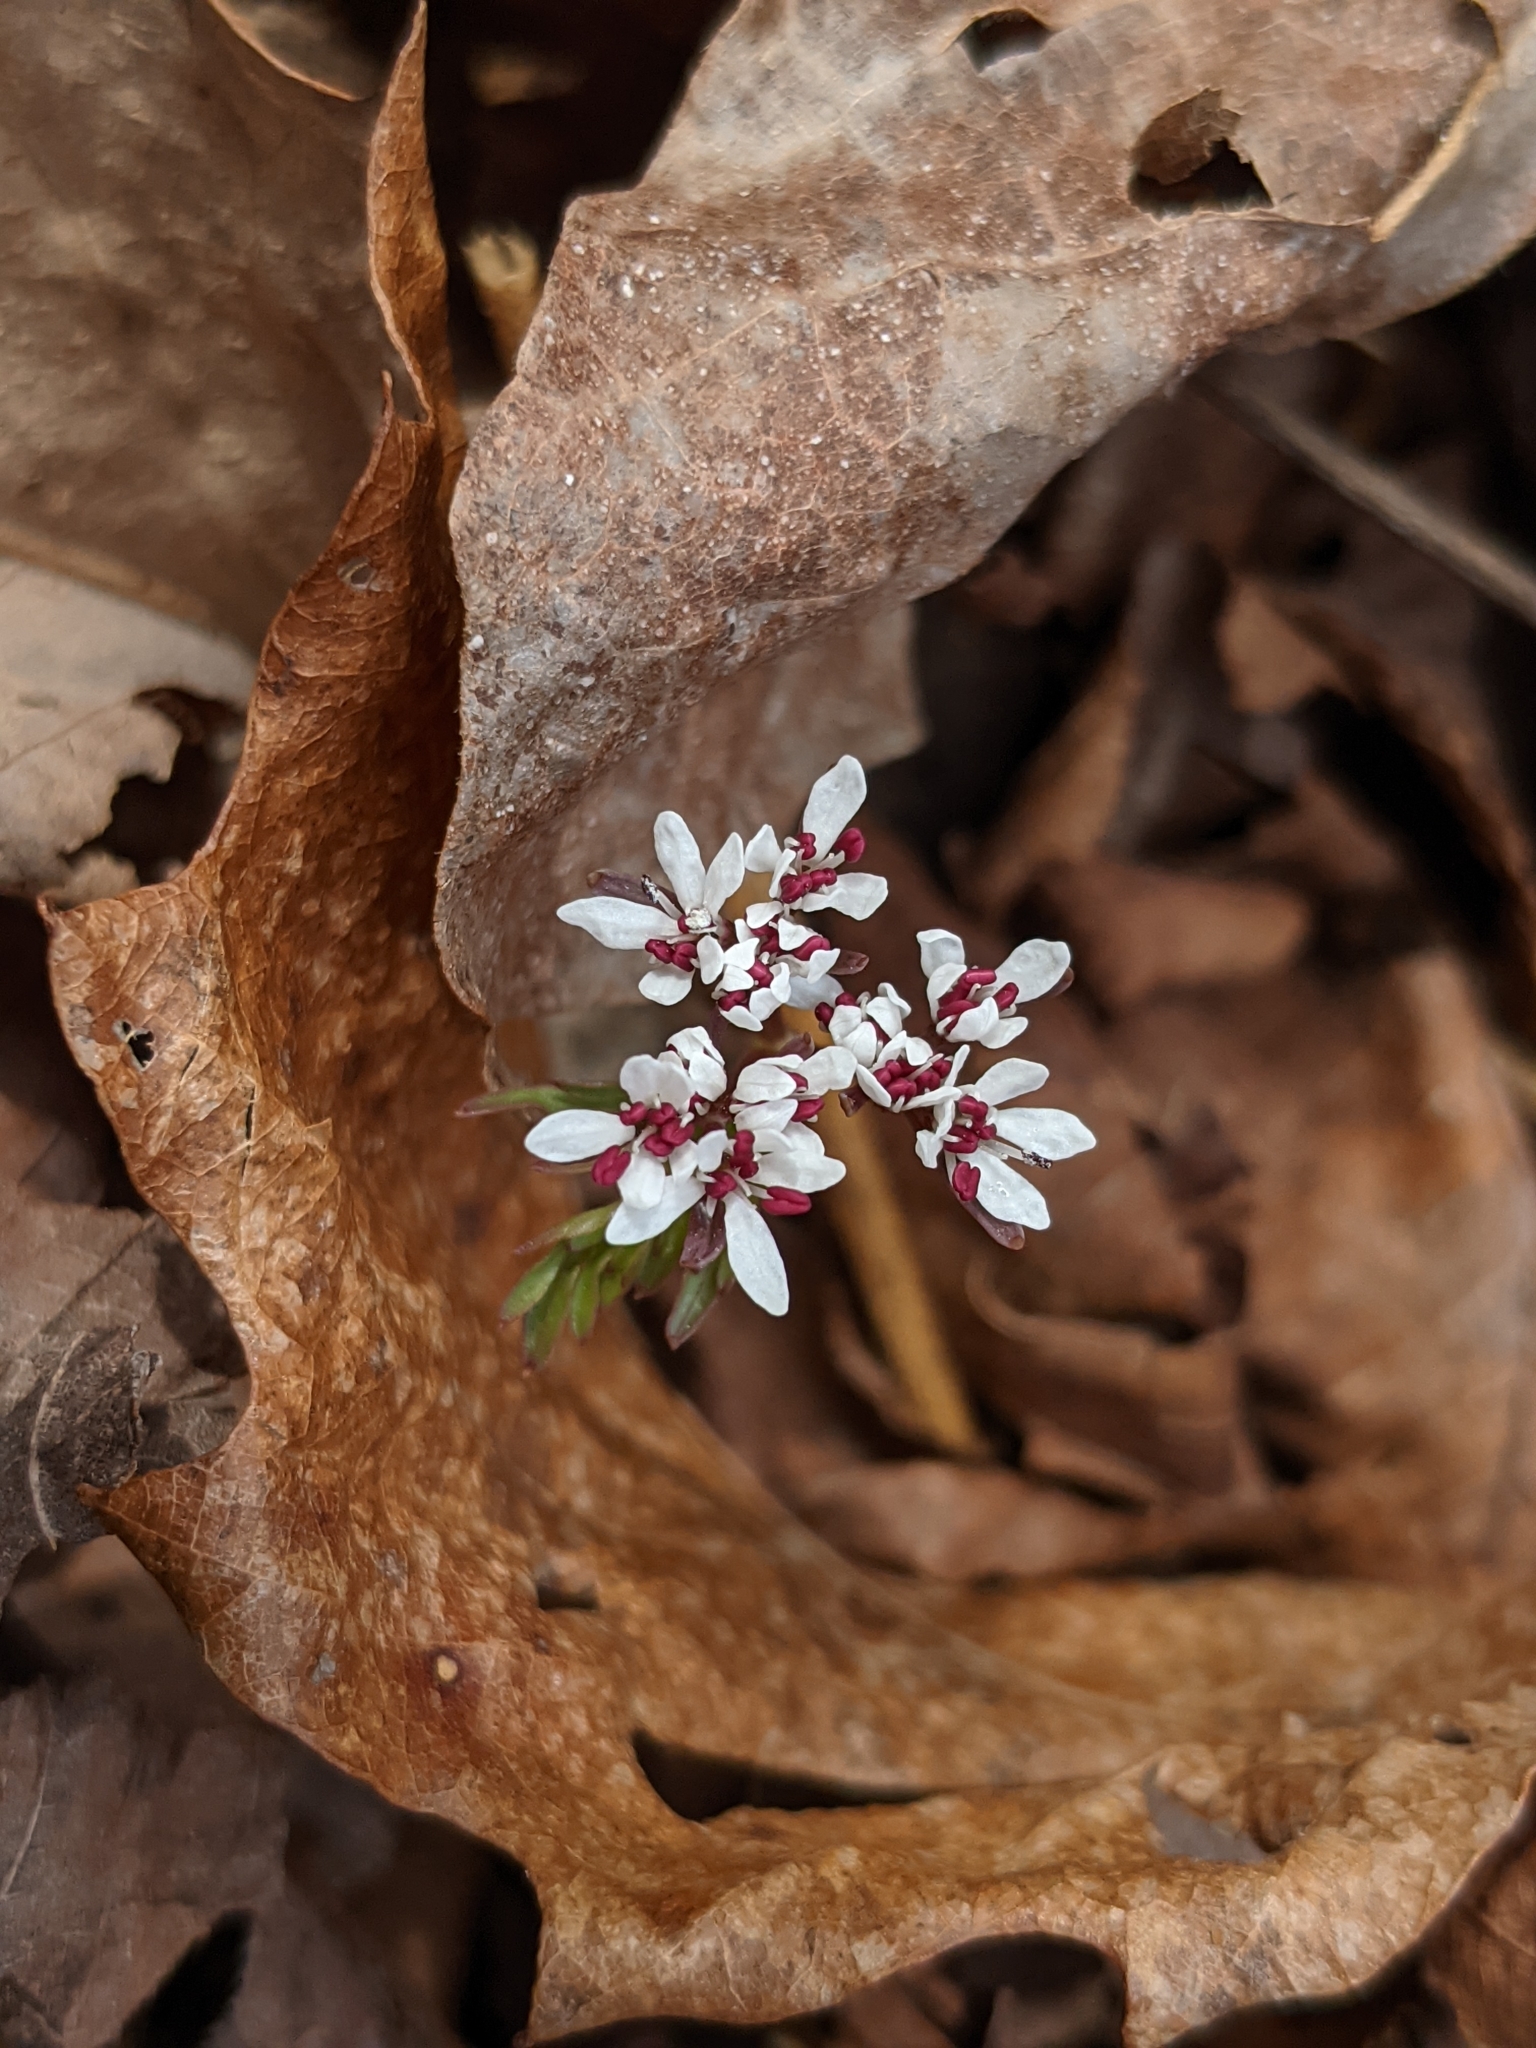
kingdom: Plantae
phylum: Tracheophyta
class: Magnoliopsida
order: Apiales
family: Apiaceae
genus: Erigenia
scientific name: Erigenia bulbosa
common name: Pepper-and-salt
